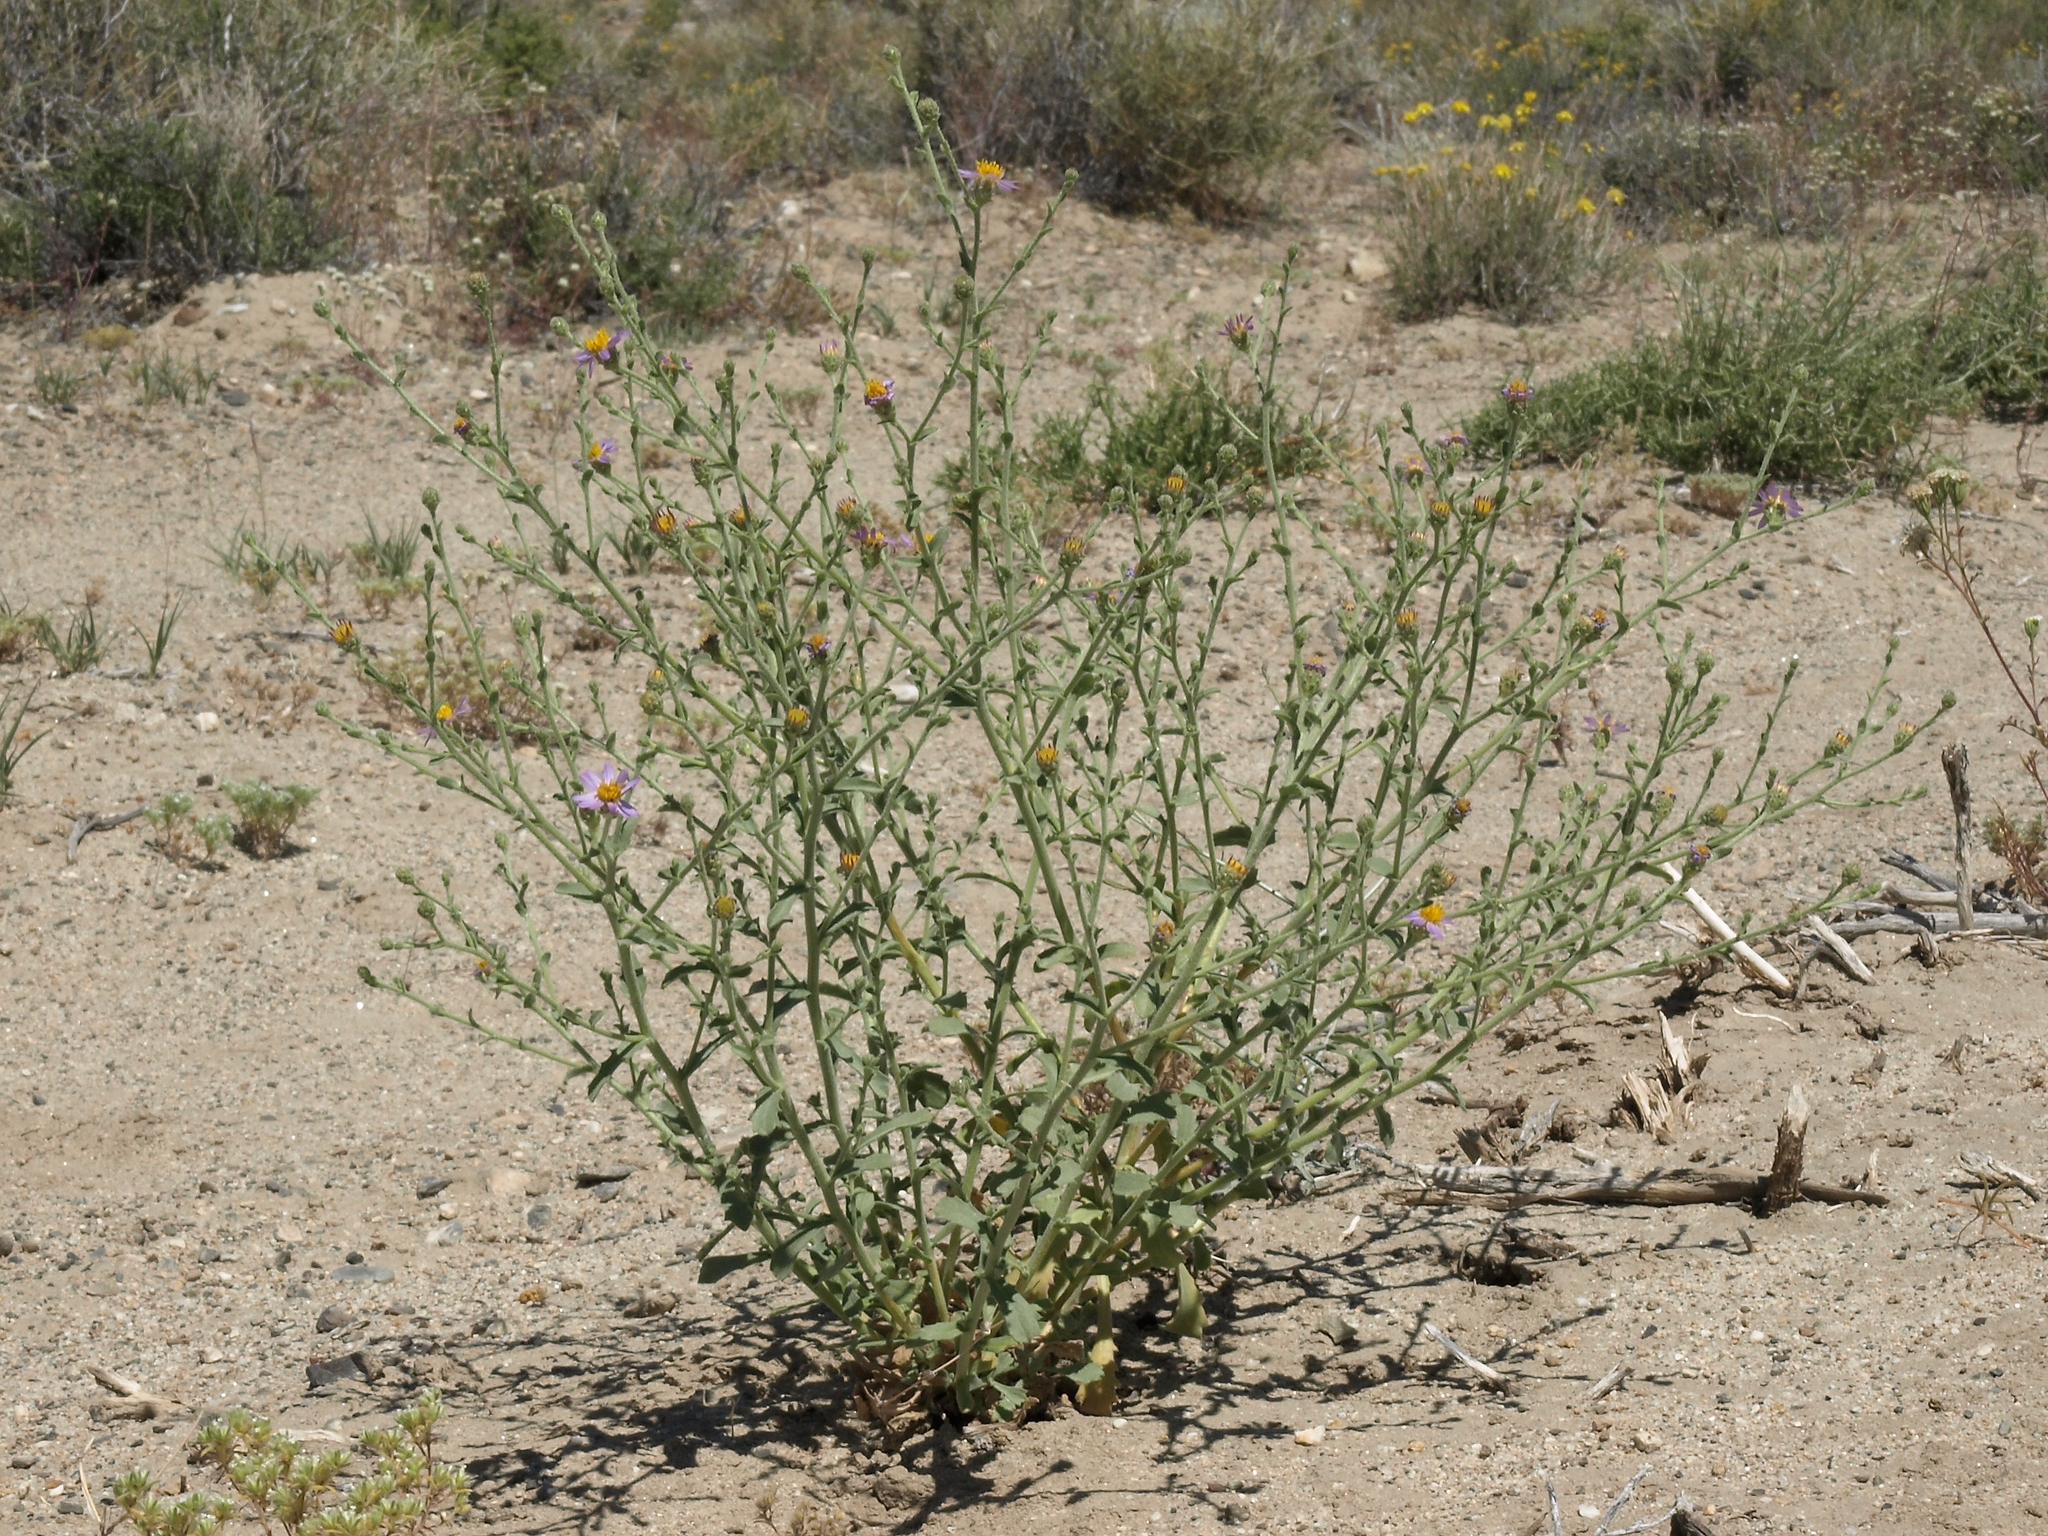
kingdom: Plantae
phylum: Tracheophyta
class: Magnoliopsida
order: Asterales
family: Asteraceae
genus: Dieteria
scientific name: Dieteria canescens
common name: Hoary-aster
